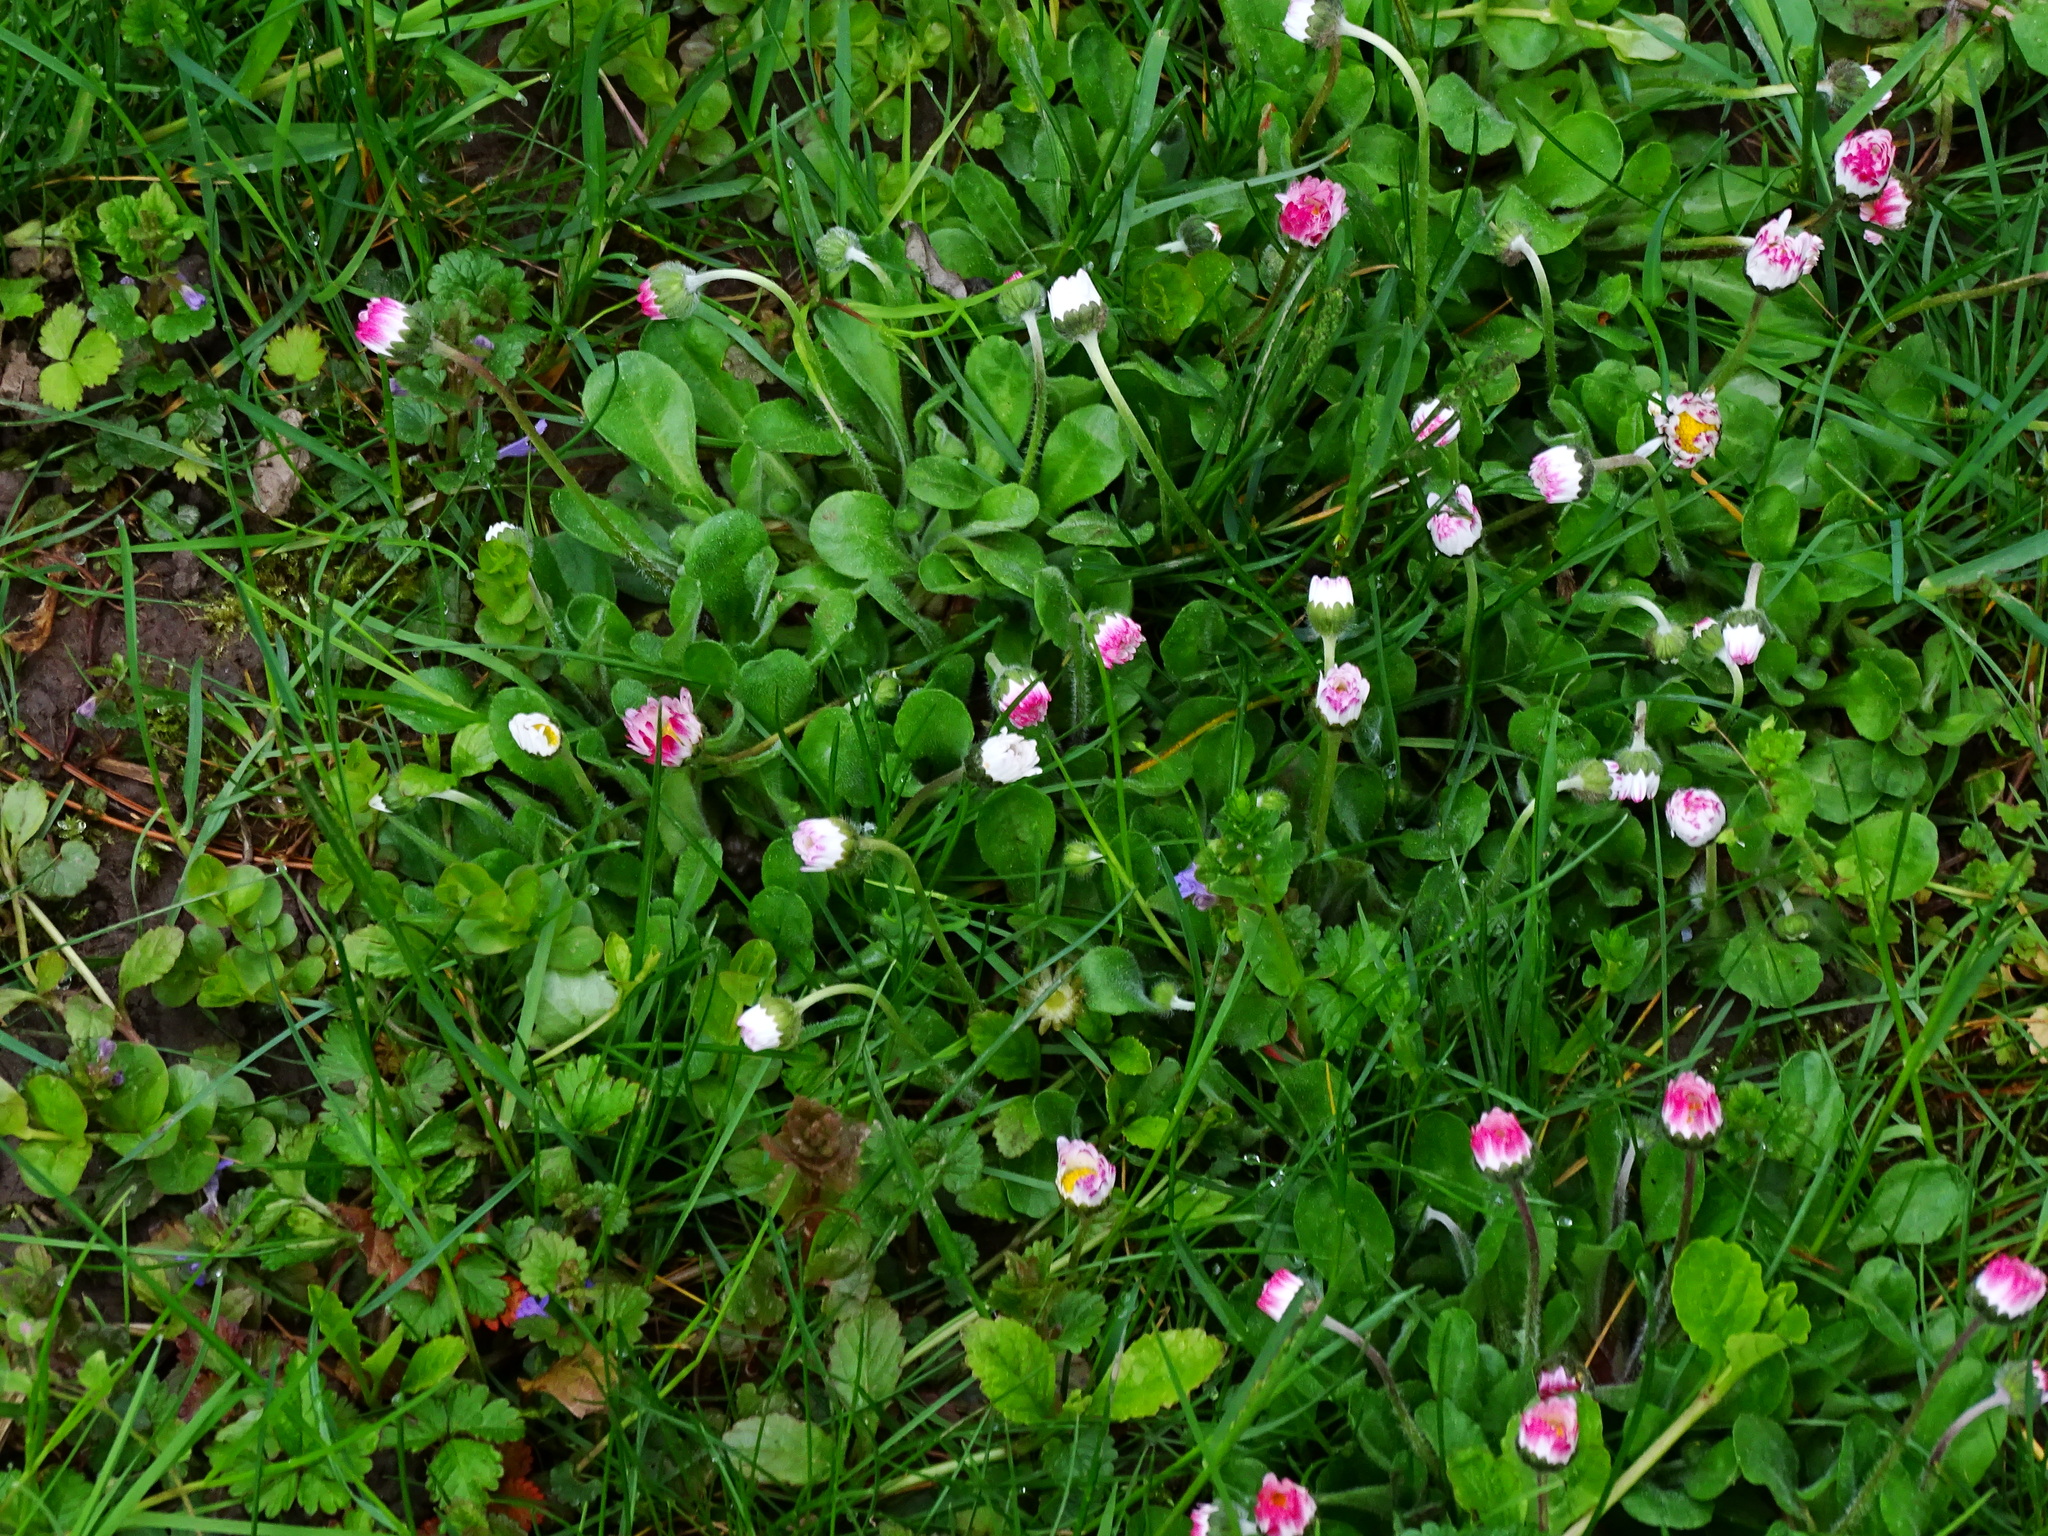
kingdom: Plantae
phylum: Tracheophyta
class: Magnoliopsida
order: Asterales
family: Asteraceae
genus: Bellis
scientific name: Bellis perennis
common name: Lawndaisy
